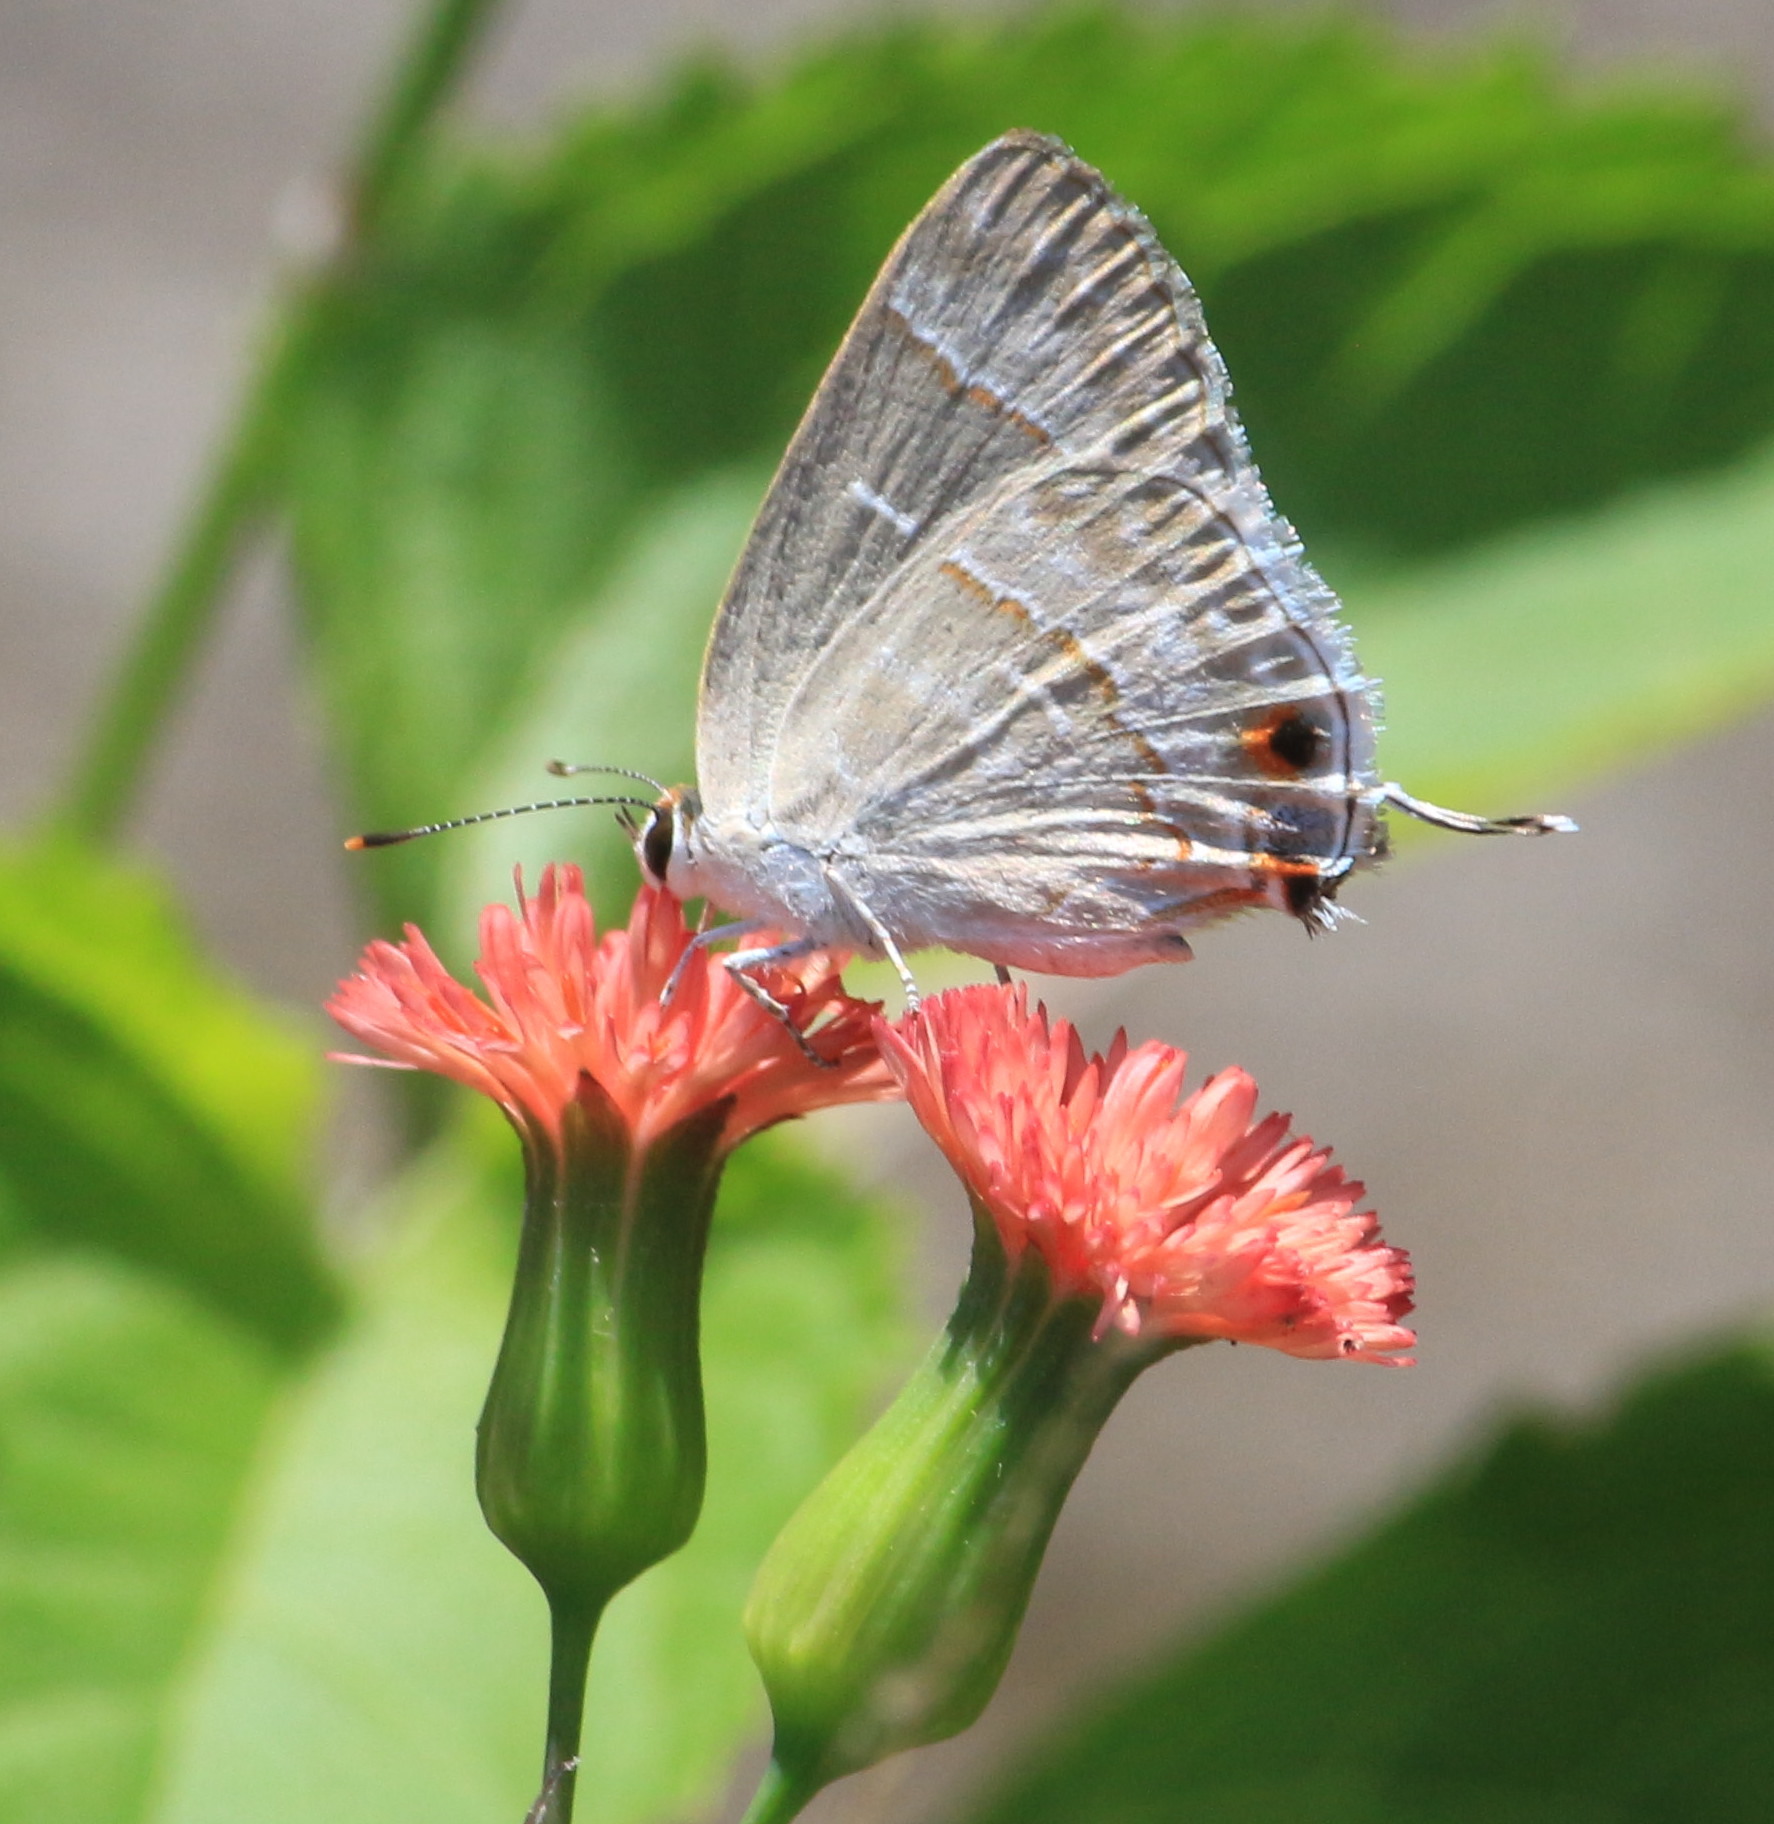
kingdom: Animalia
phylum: Arthropoda
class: Insecta
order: Lepidoptera
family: Lycaenidae
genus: Thecla
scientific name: Thecla yojoa
